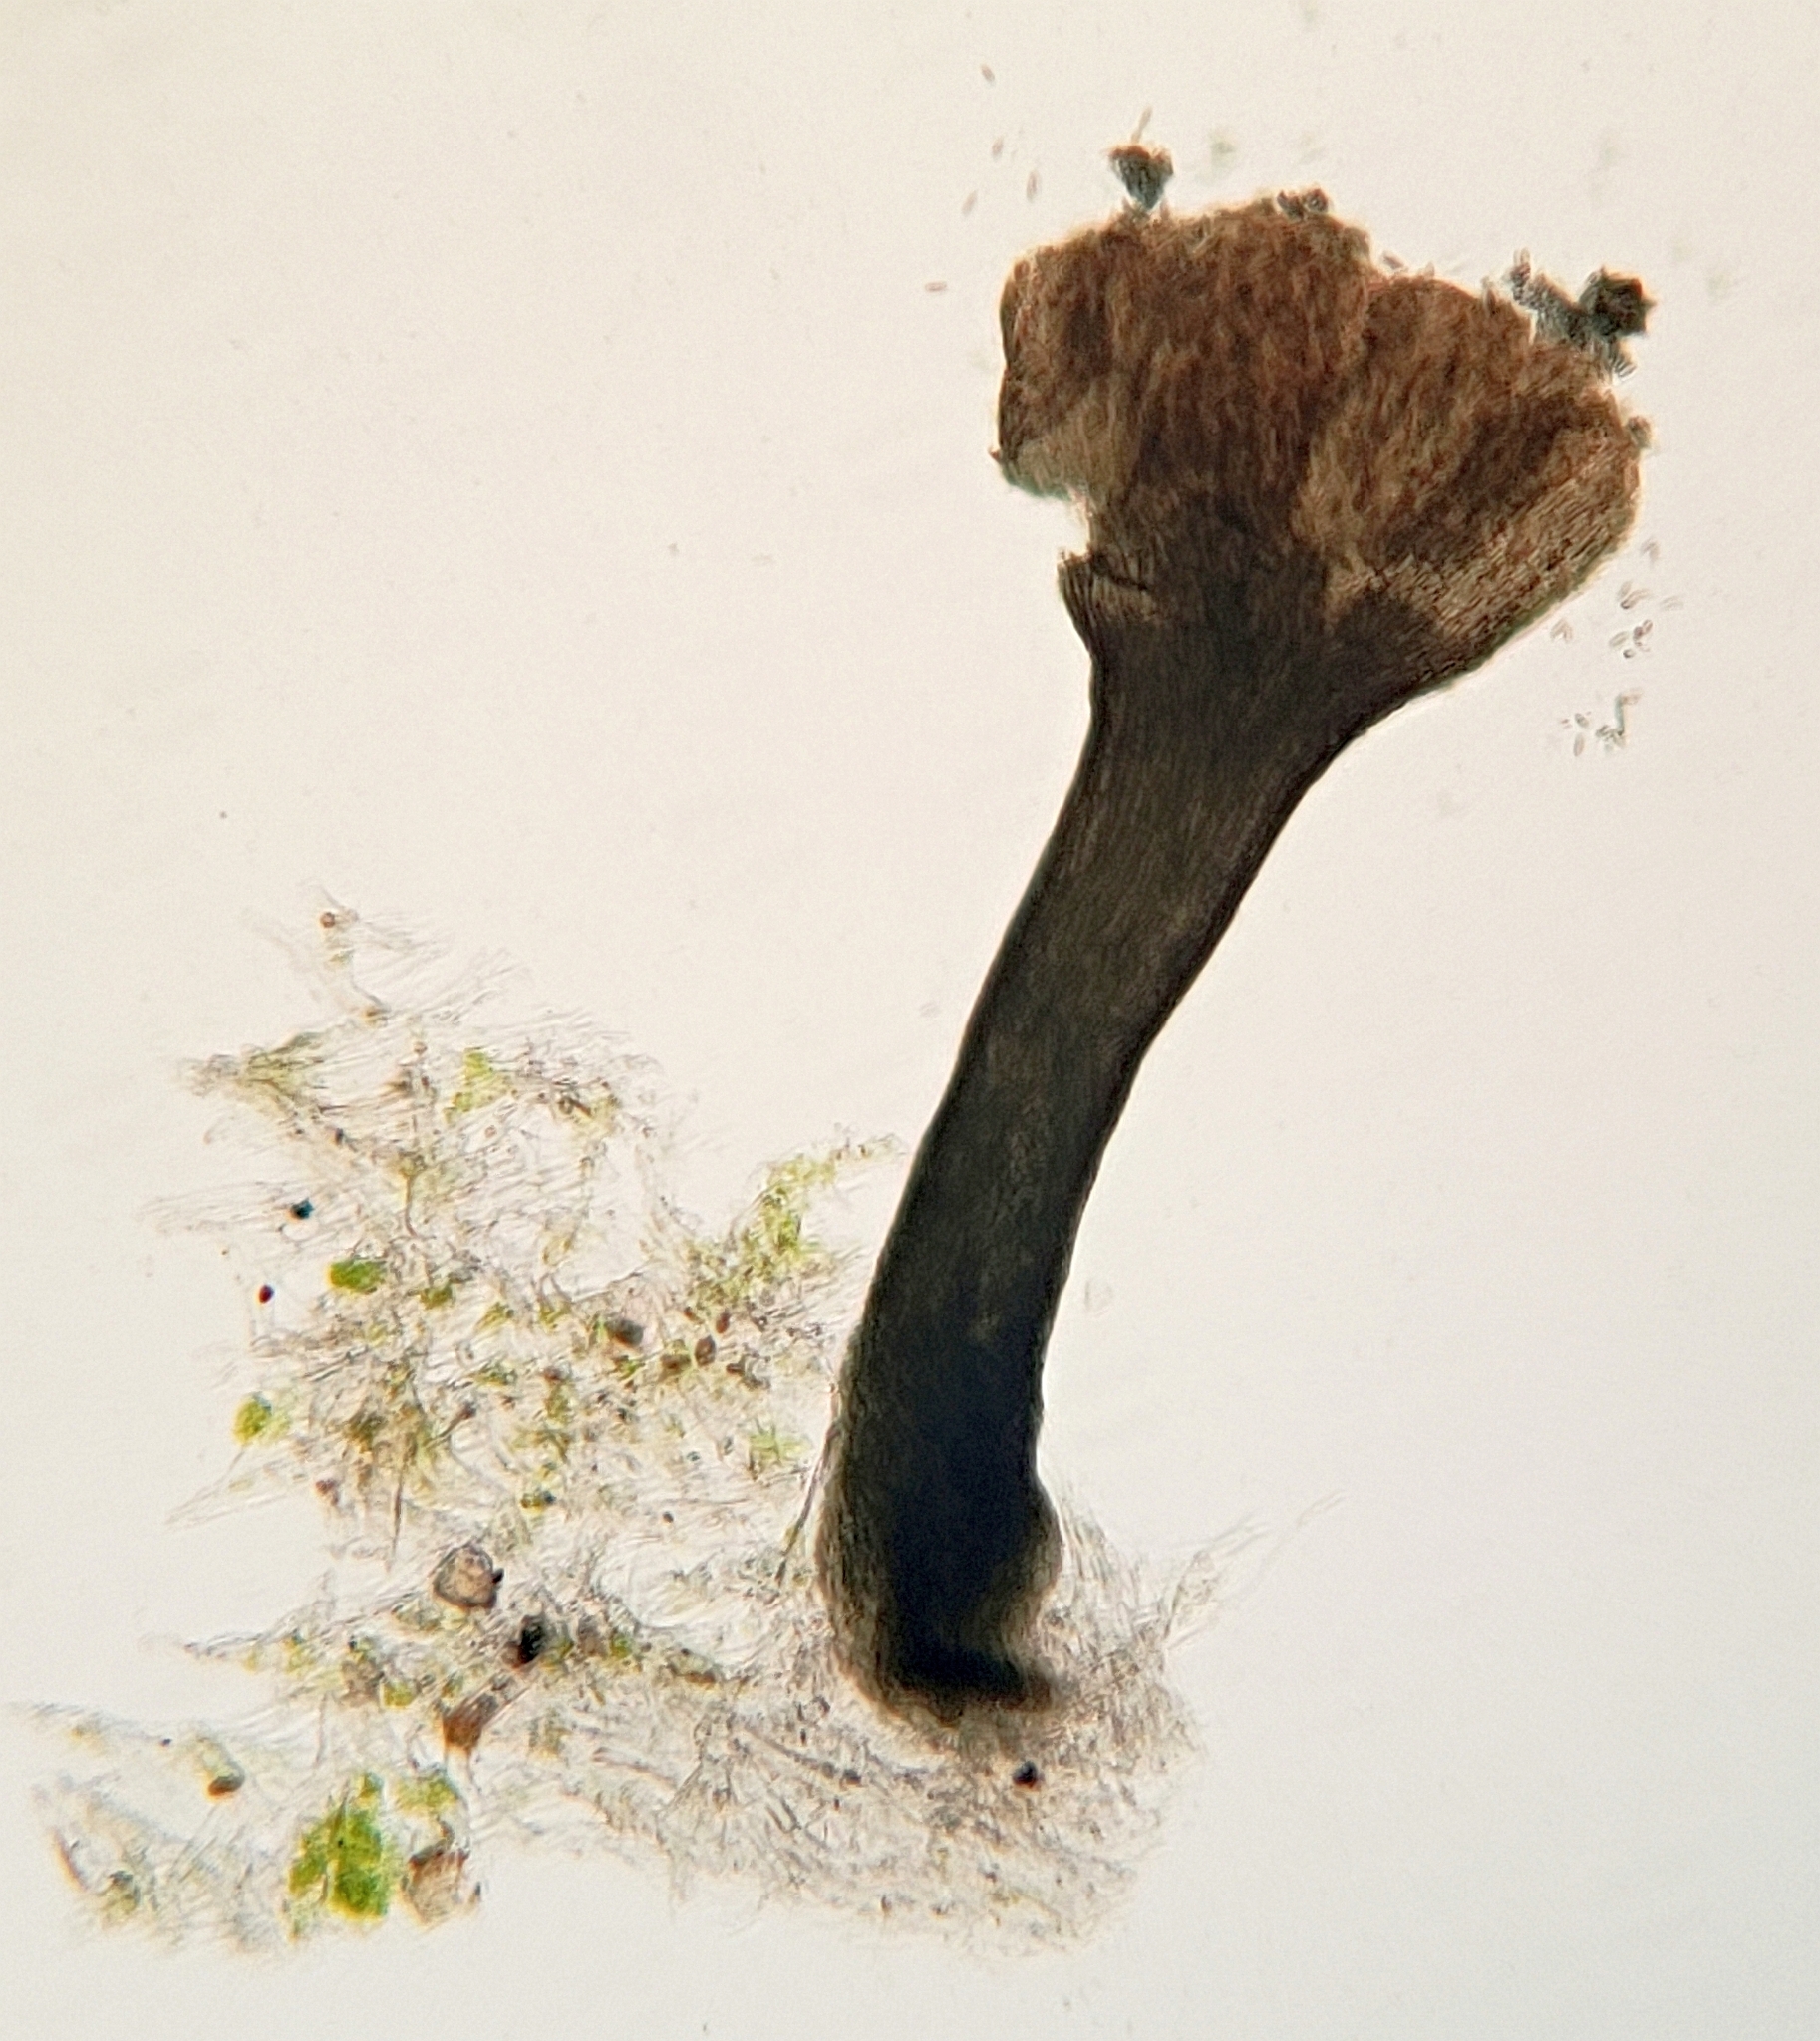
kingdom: Fungi
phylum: Ascomycota
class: Eurotiomycetes
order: Mycocaliciales
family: Mycocaliciaceae
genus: Phaeocalicium
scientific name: Phaeocalicium polyporaeum
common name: Fairy pins
